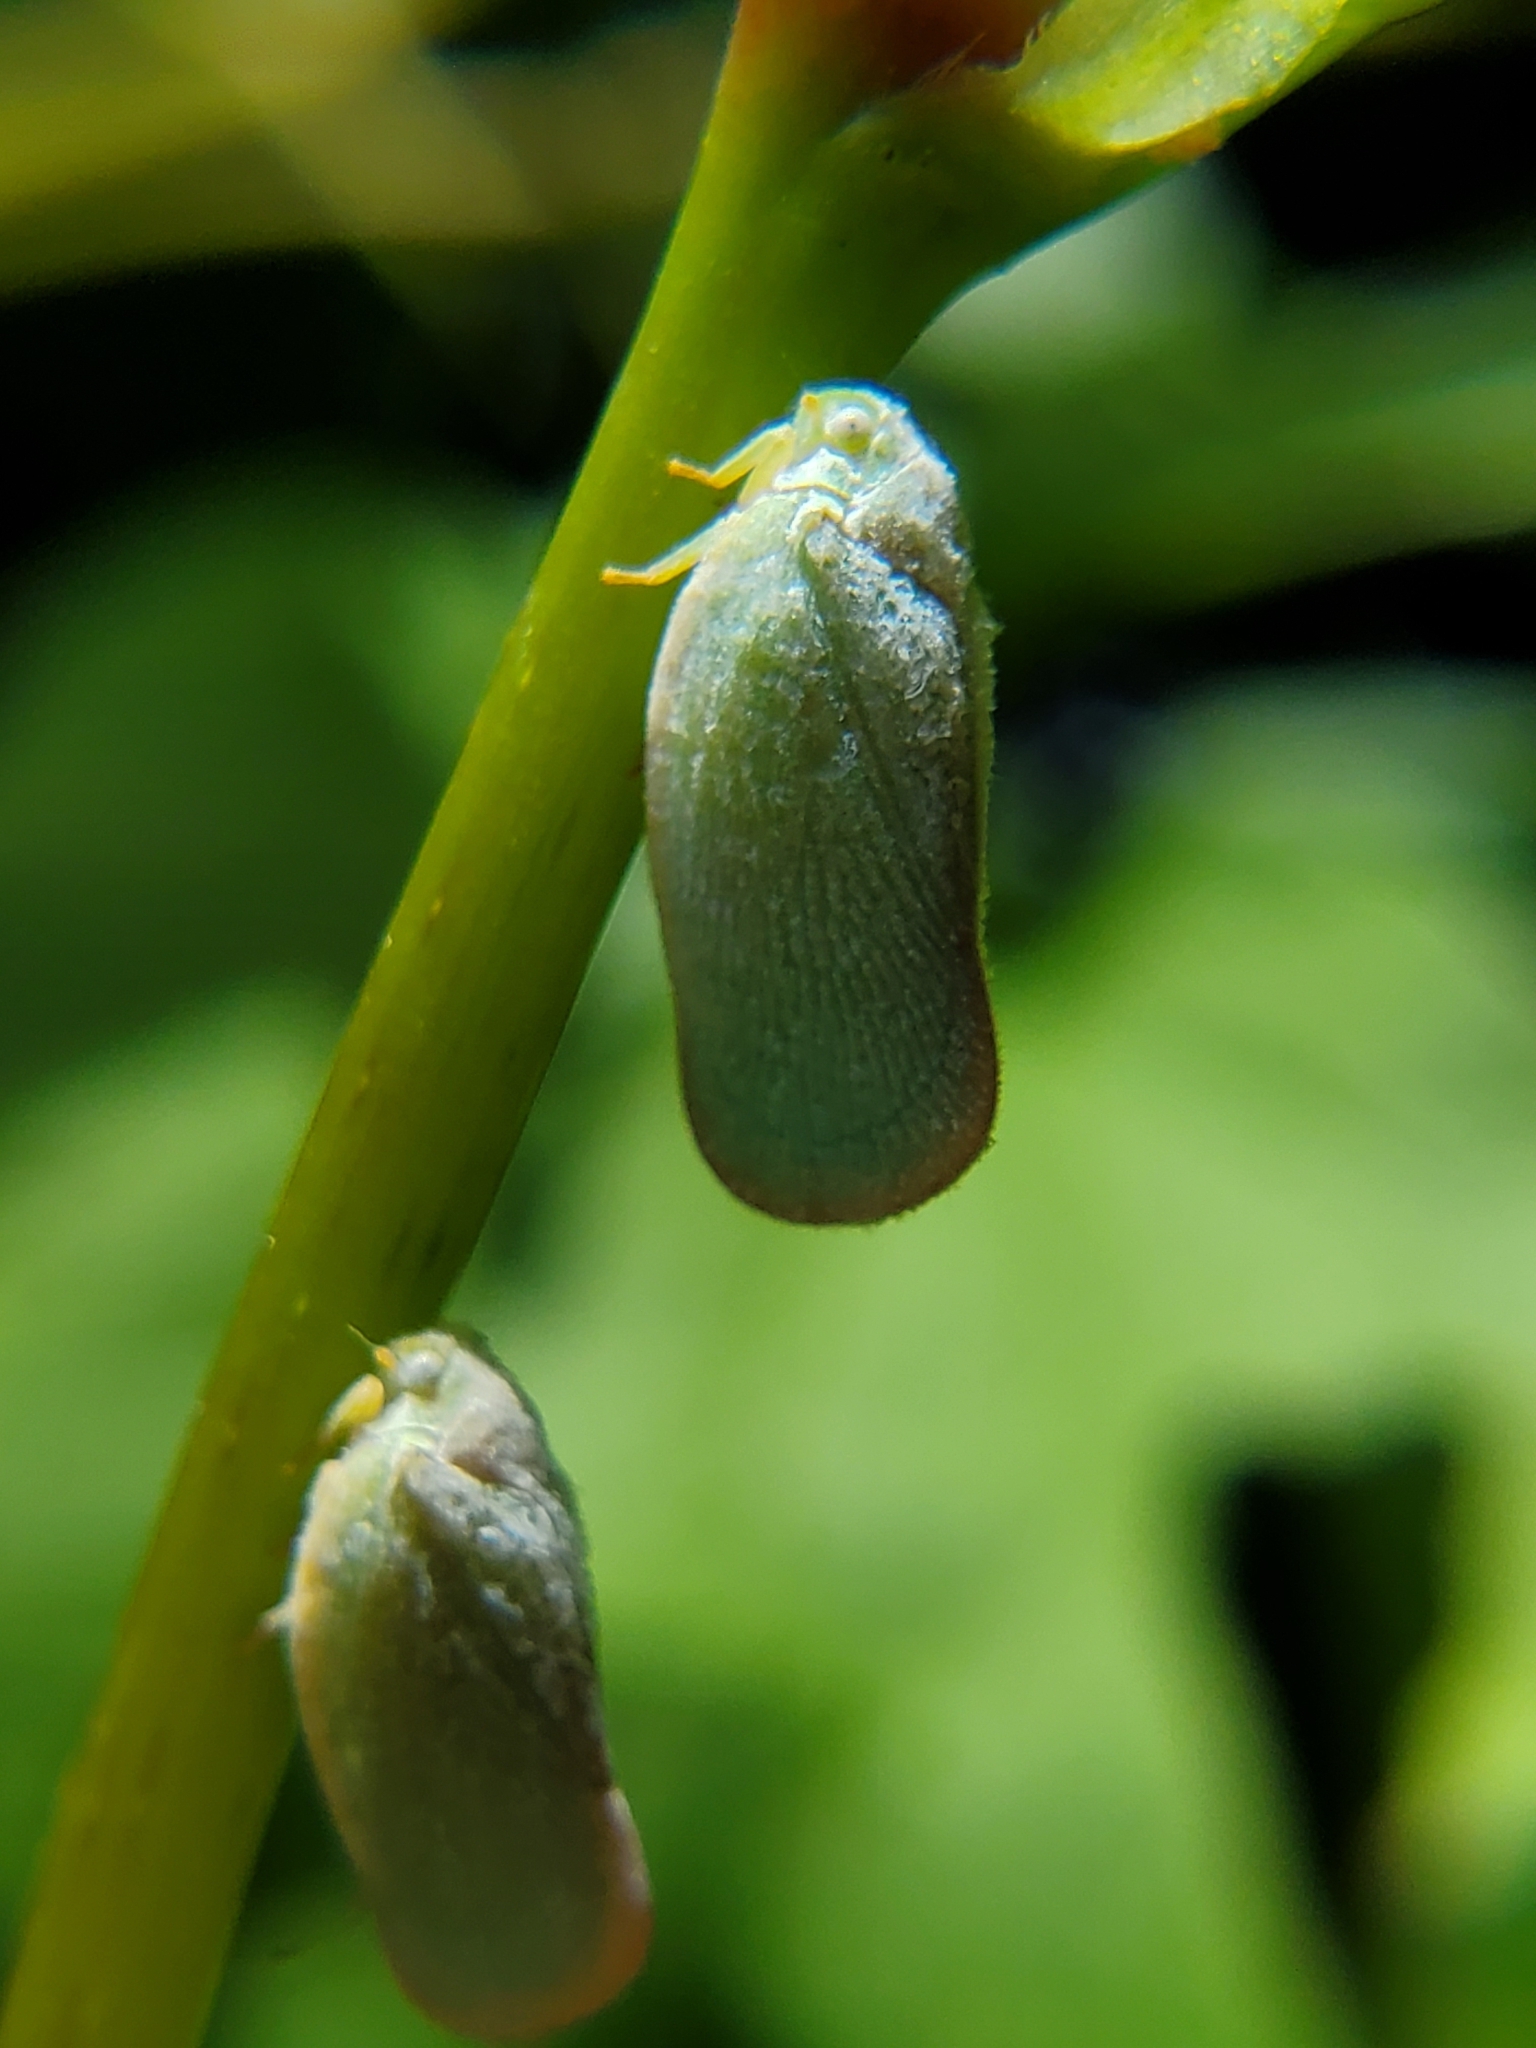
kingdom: Animalia
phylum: Arthropoda
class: Insecta
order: Hemiptera
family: Flatidae
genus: Ormenoides
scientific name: Ormenoides venusta
